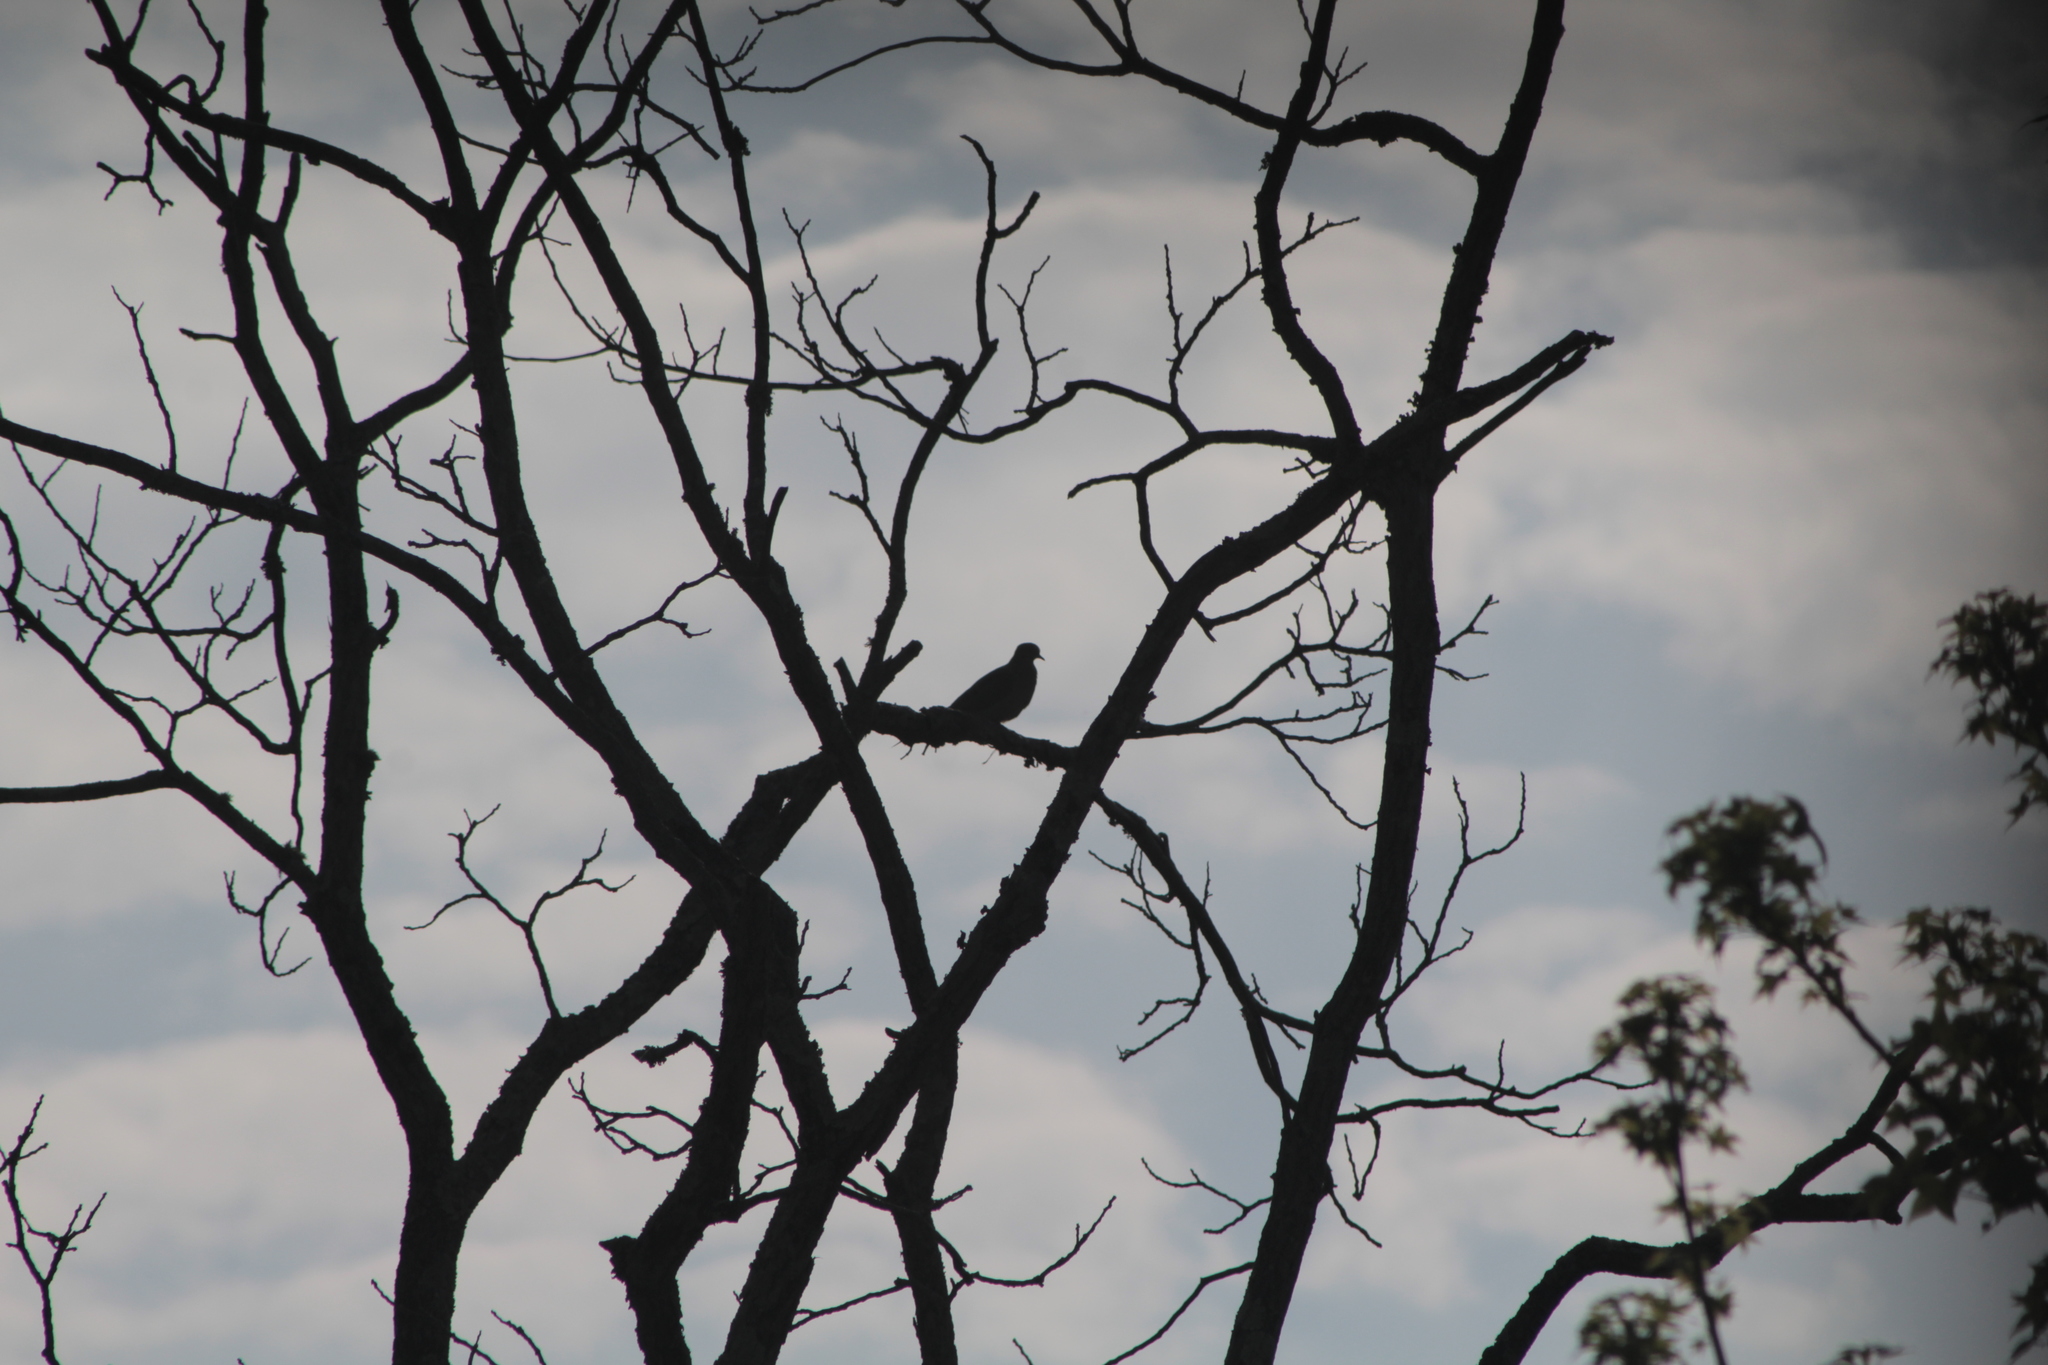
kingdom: Animalia
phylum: Chordata
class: Aves
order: Columbiformes
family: Columbidae
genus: Zenaida
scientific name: Zenaida macroura
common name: Mourning dove
